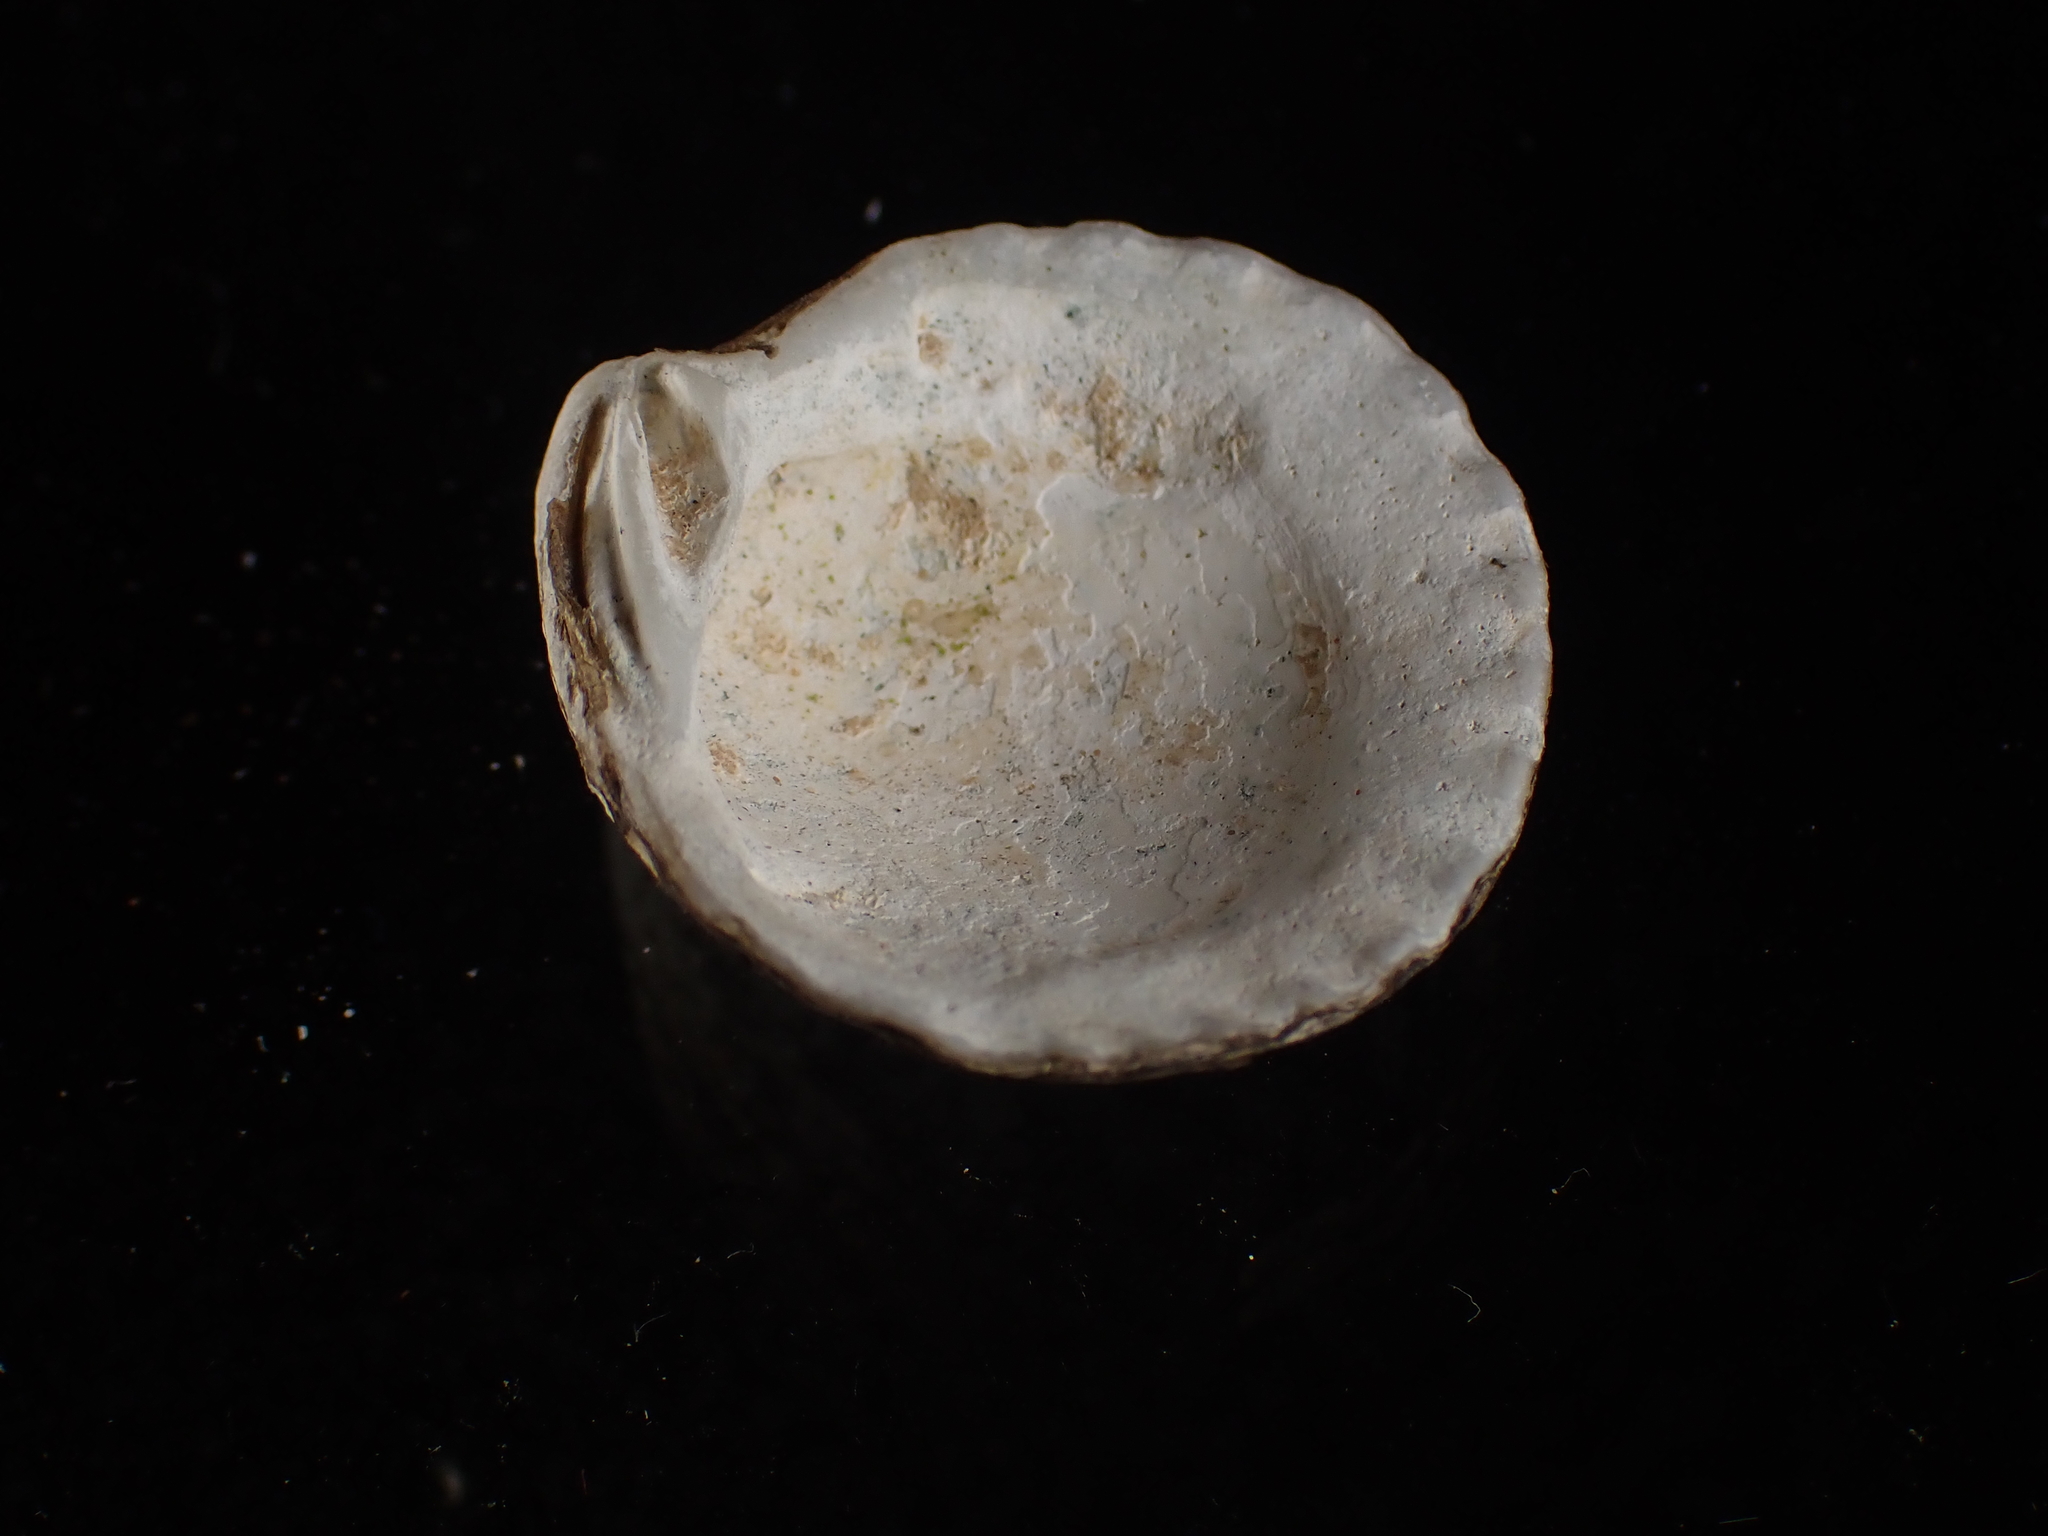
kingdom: Animalia
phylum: Mollusca
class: Bivalvia
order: Carditida
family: Carditidae
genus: Cyclocardia
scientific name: Cyclocardia borealis
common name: Northern cyclocardia
